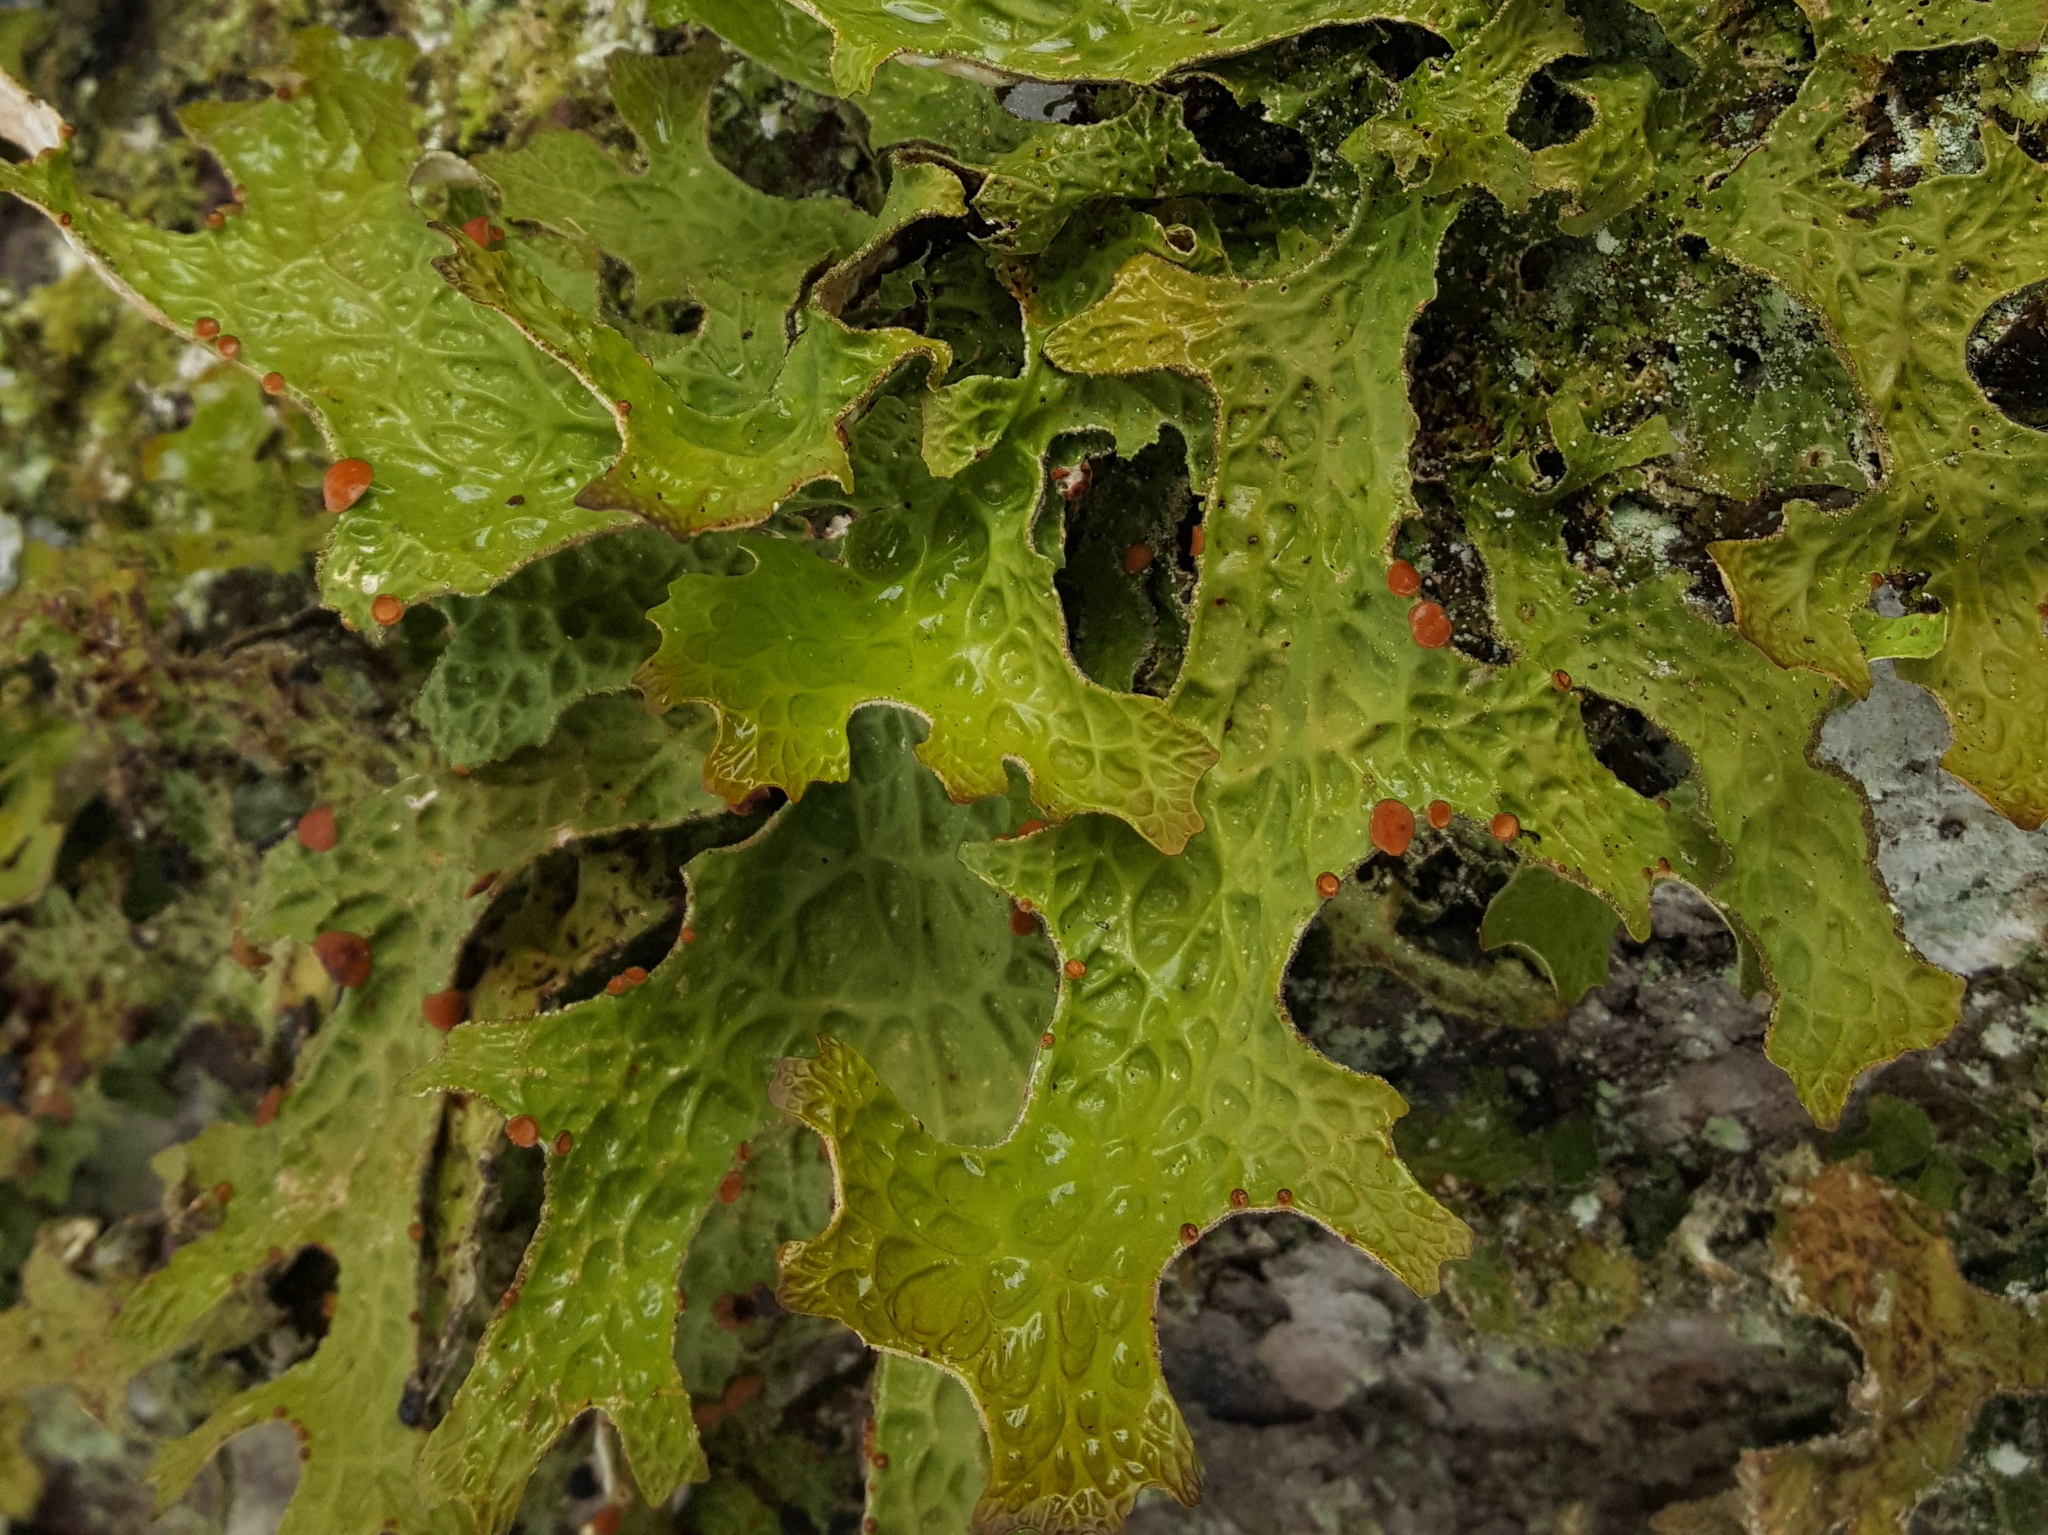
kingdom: Fungi
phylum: Ascomycota
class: Lecanoromycetes
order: Peltigerales
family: Lobariaceae
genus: Lobaria
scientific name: Lobaria pulmonaria
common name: Lungwort
